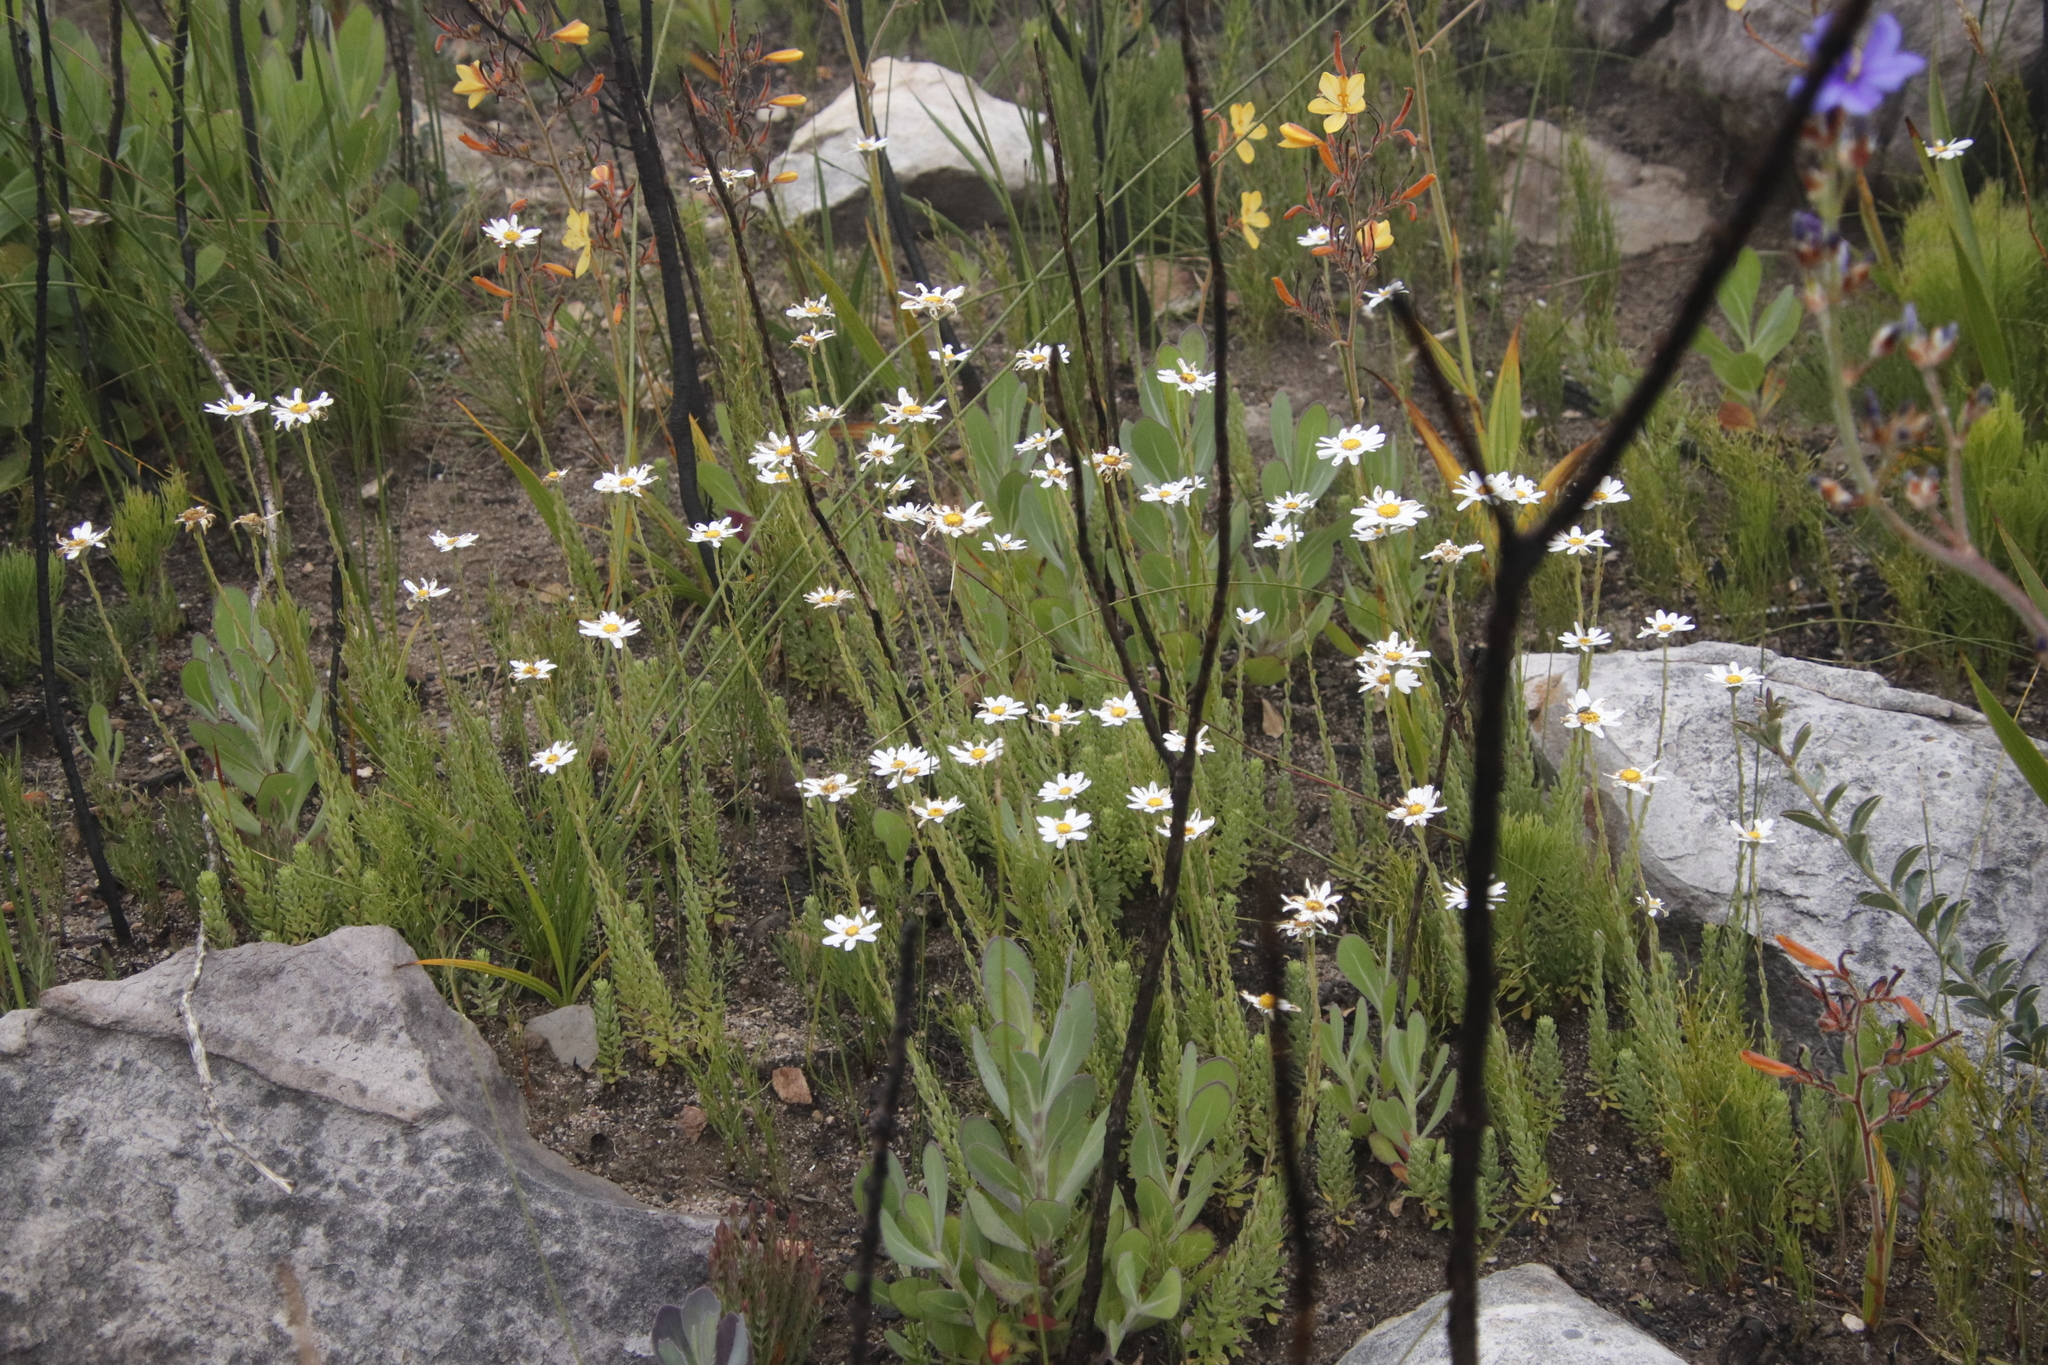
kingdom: Plantae
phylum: Tracheophyta
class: Magnoliopsida
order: Asterales
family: Asteraceae
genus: Osmitopsis
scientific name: Osmitopsis afra
